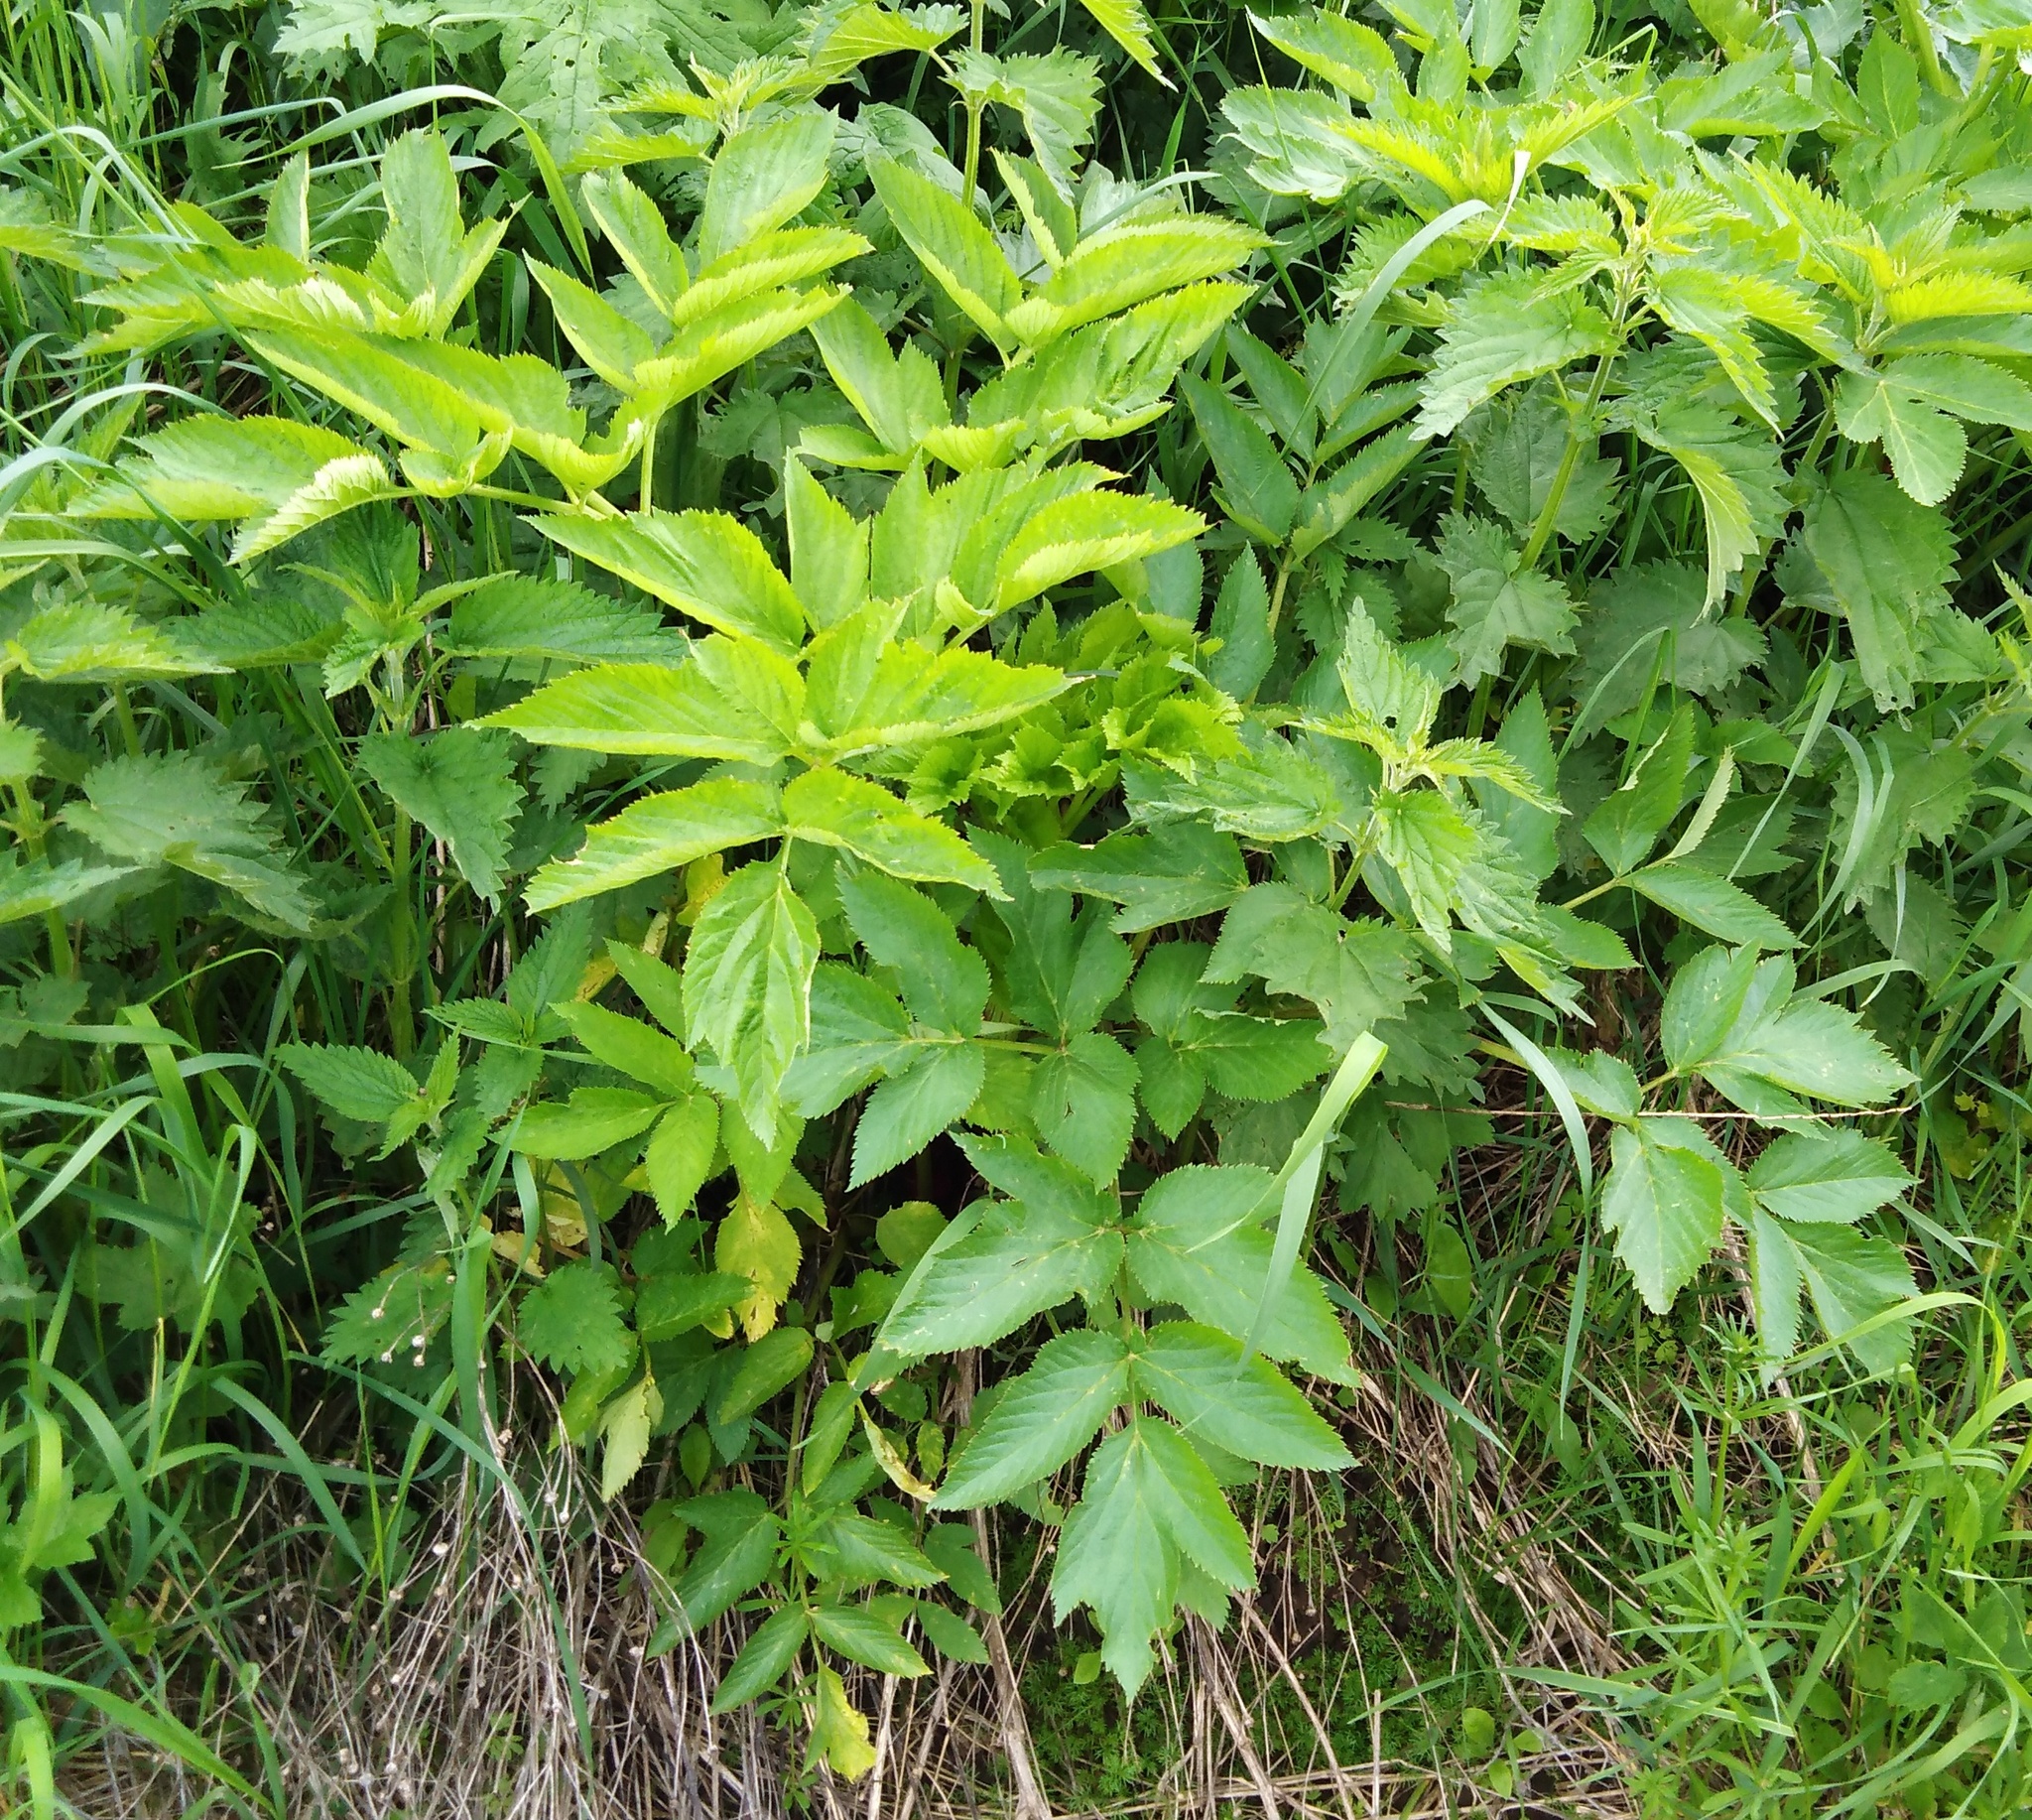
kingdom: Plantae
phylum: Tracheophyta
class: Magnoliopsida
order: Apiales
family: Apiaceae
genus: Angelica
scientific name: Angelica archangelica
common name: Garden angelica
